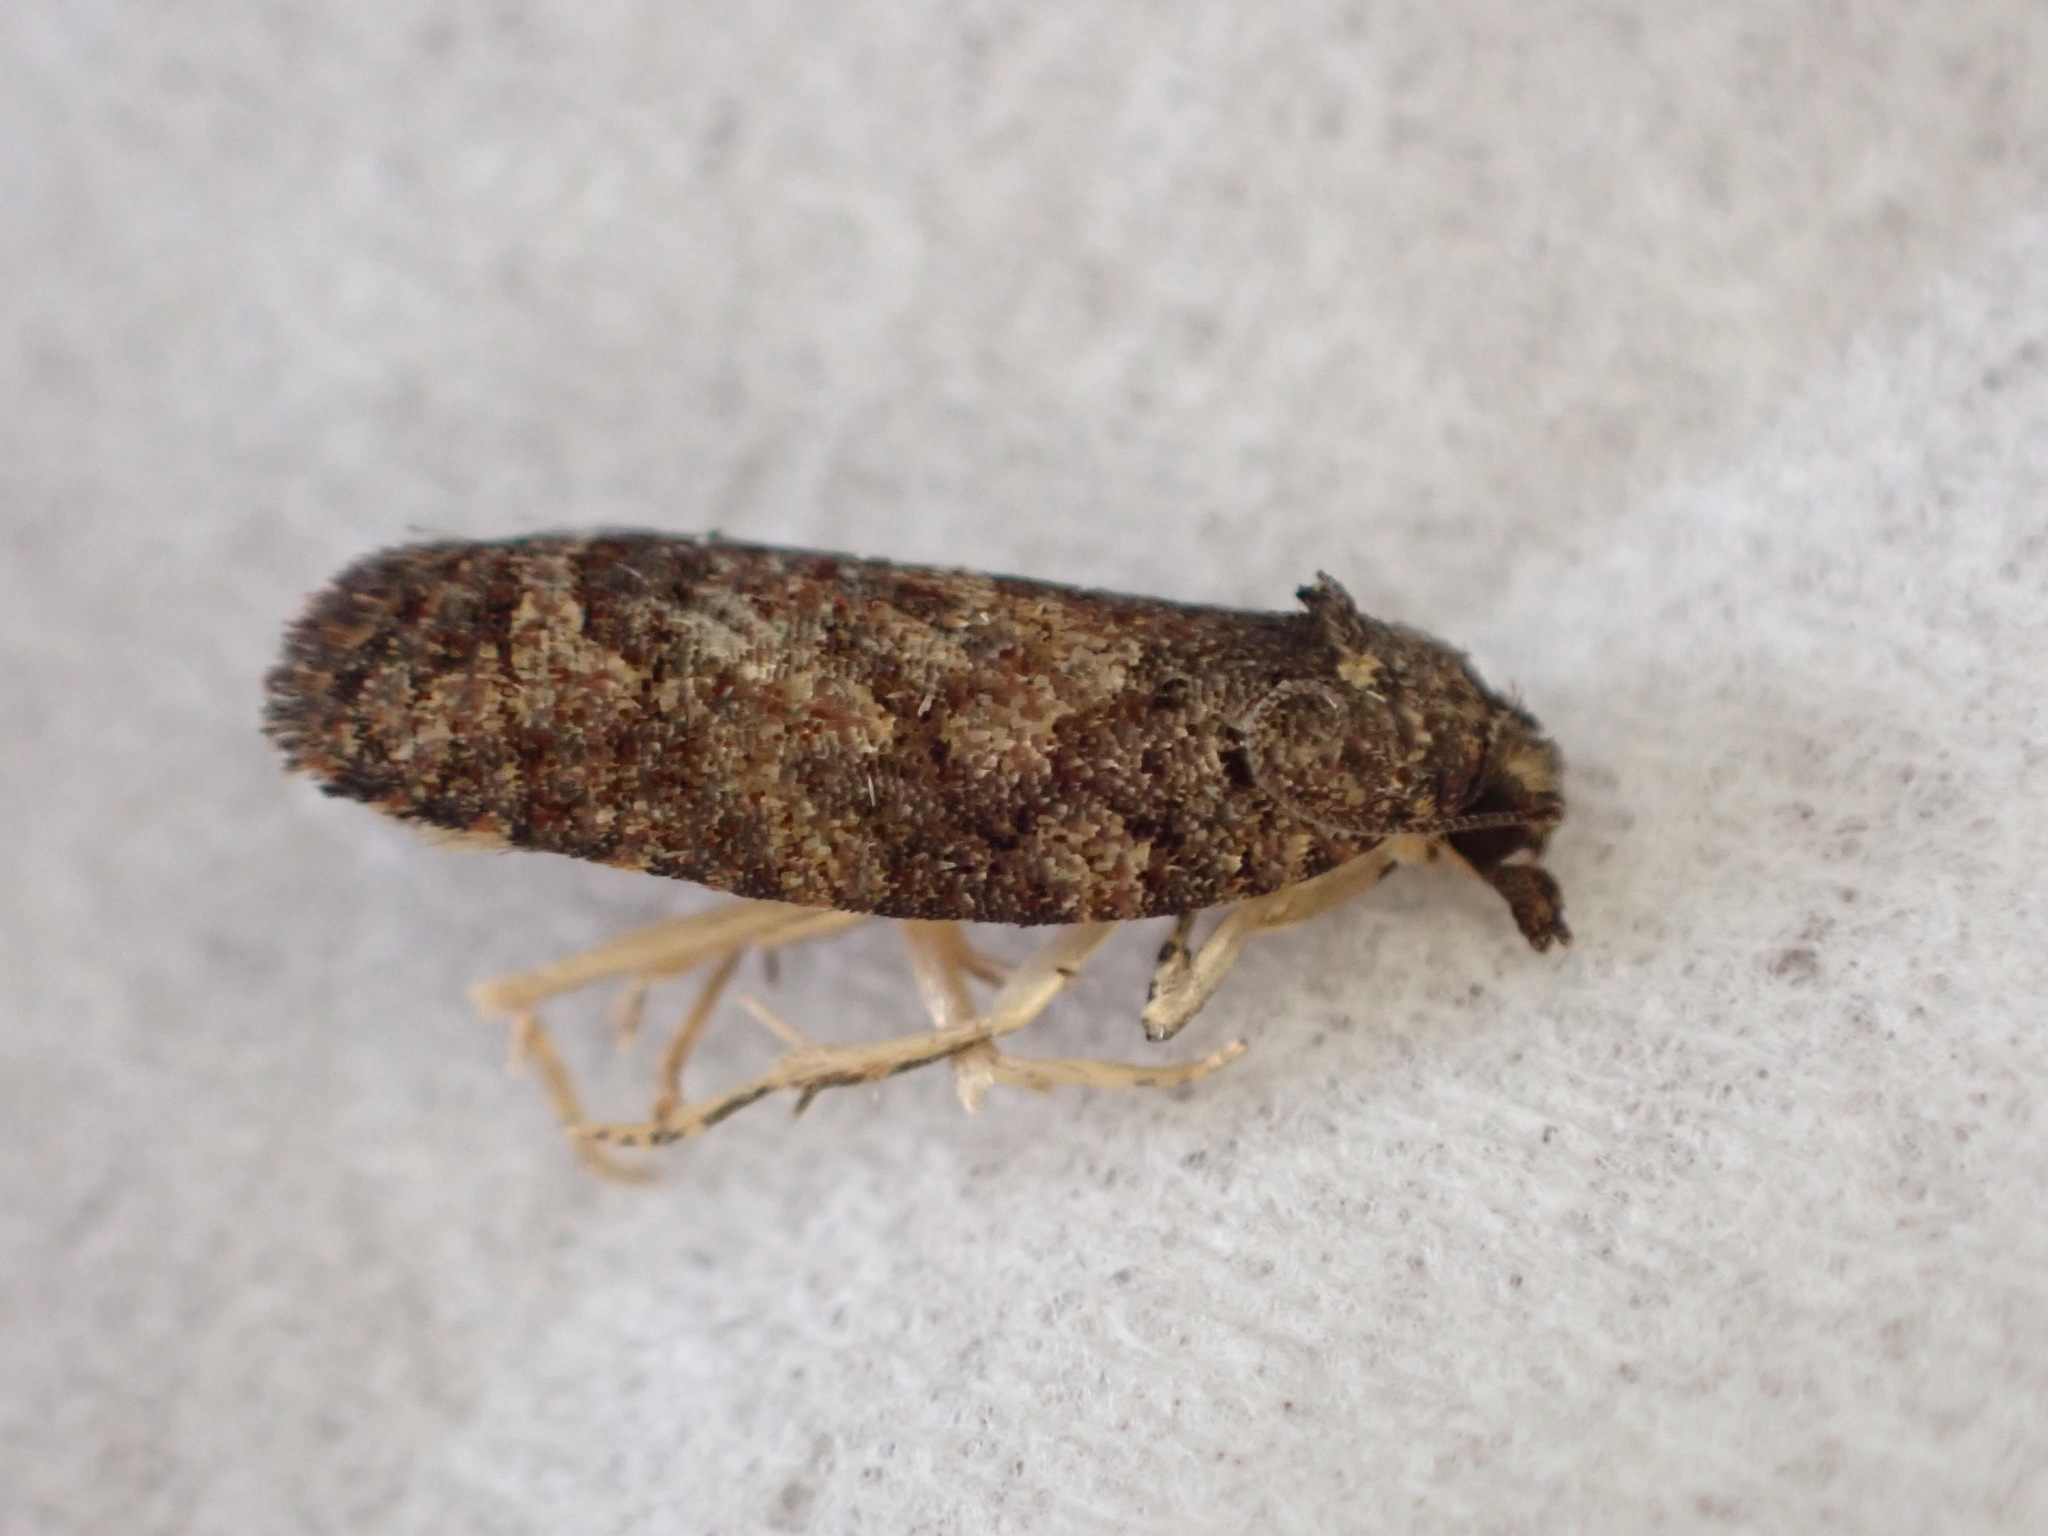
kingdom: Animalia
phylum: Arthropoda
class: Insecta
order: Lepidoptera
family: Tortricidae
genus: Capua
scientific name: Capua intractana
